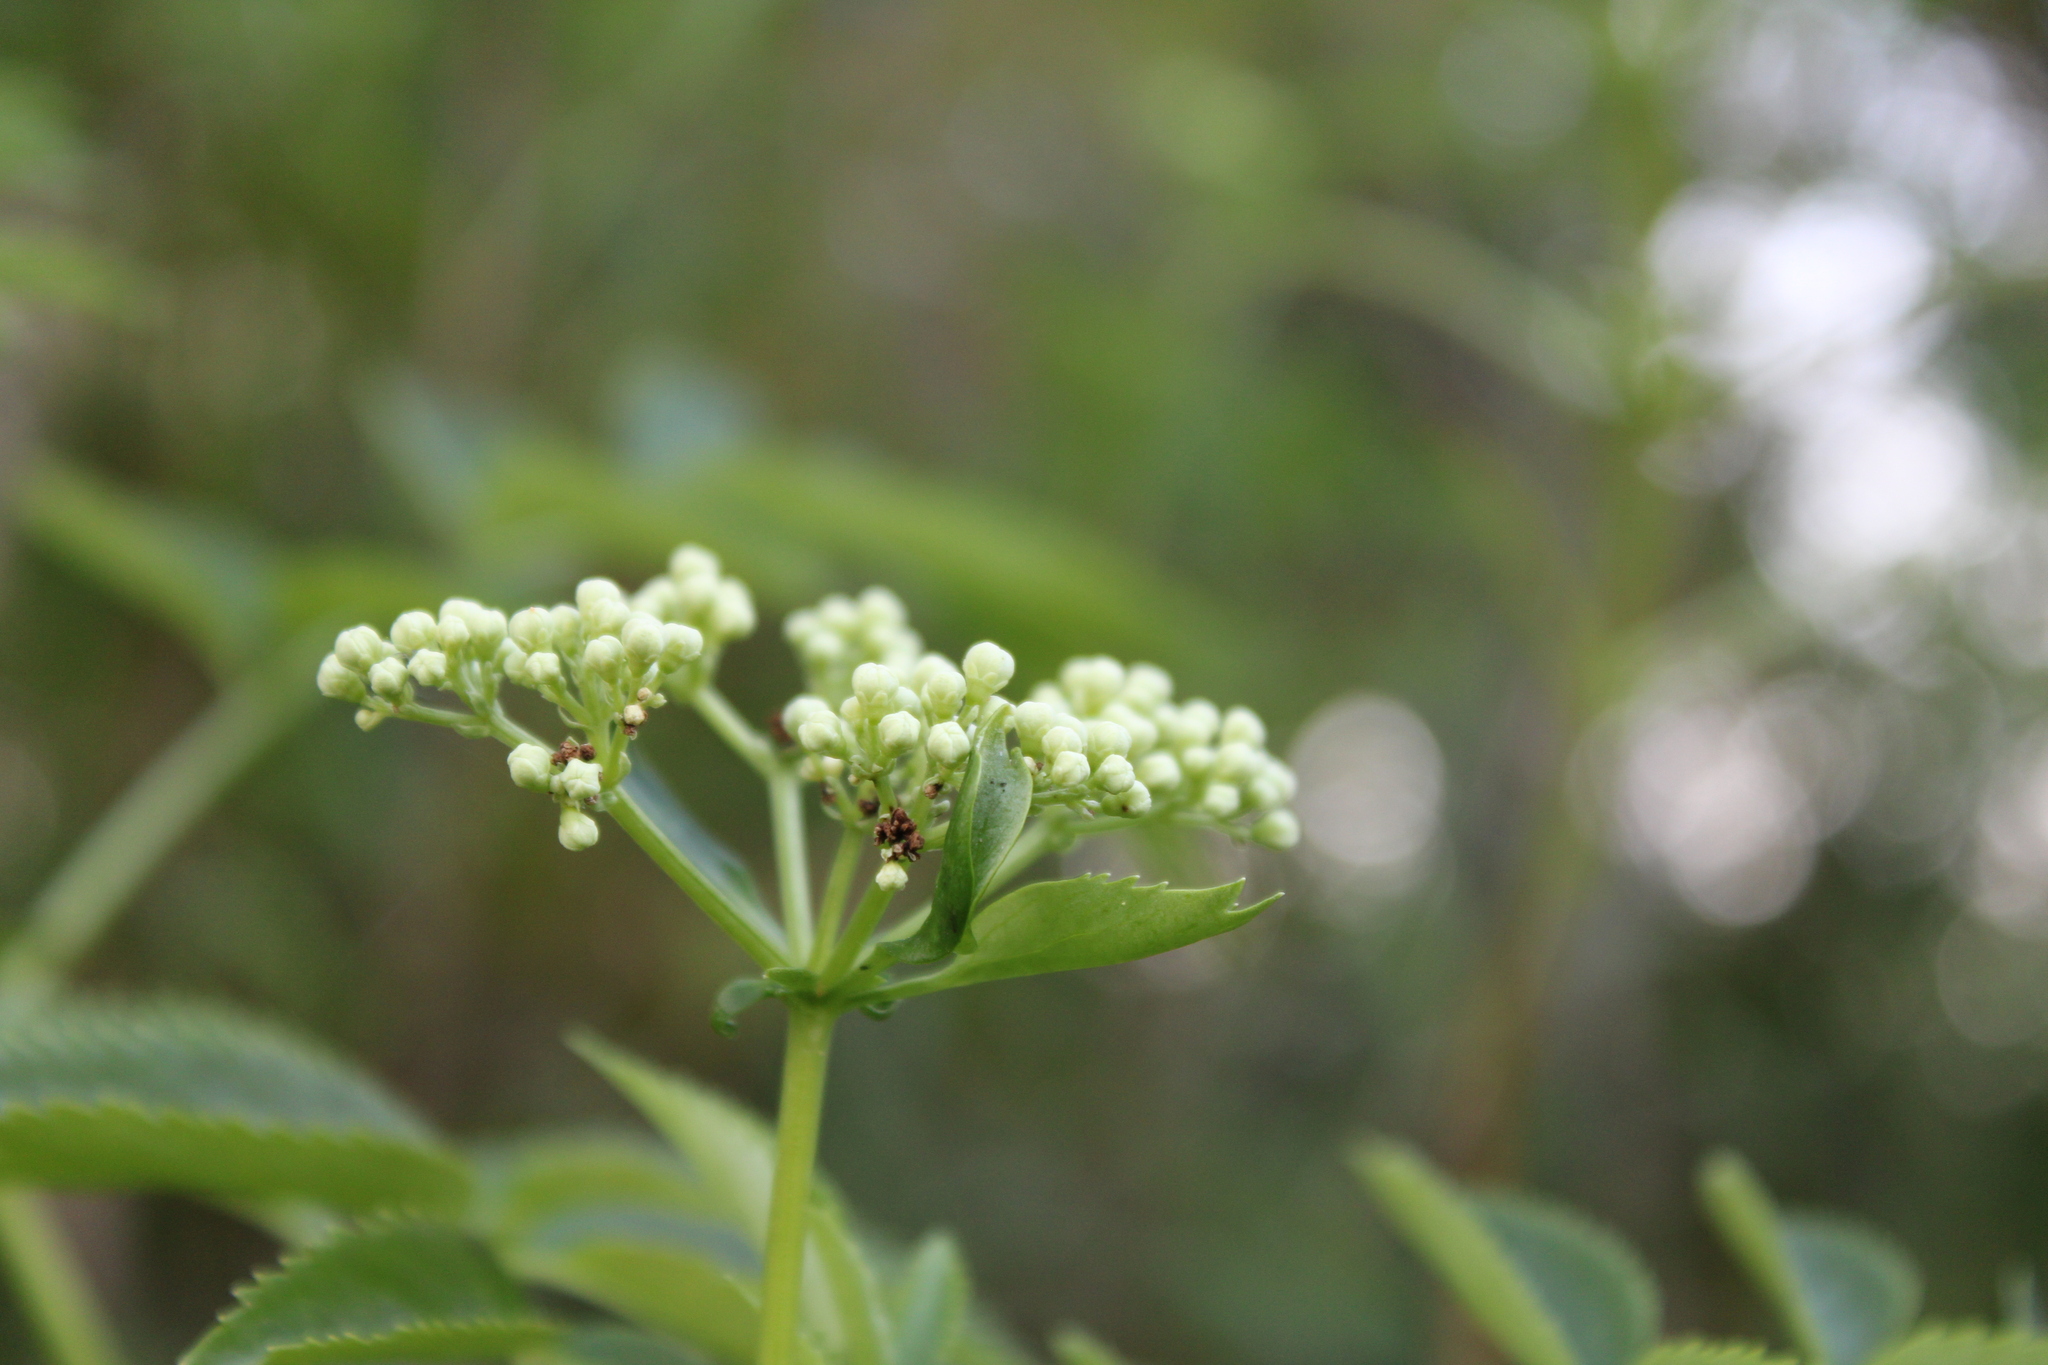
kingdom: Plantae
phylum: Tracheophyta
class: Magnoliopsida
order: Dipsacales
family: Viburnaceae
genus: Sambucus
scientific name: Sambucus australis
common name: Southern elder
